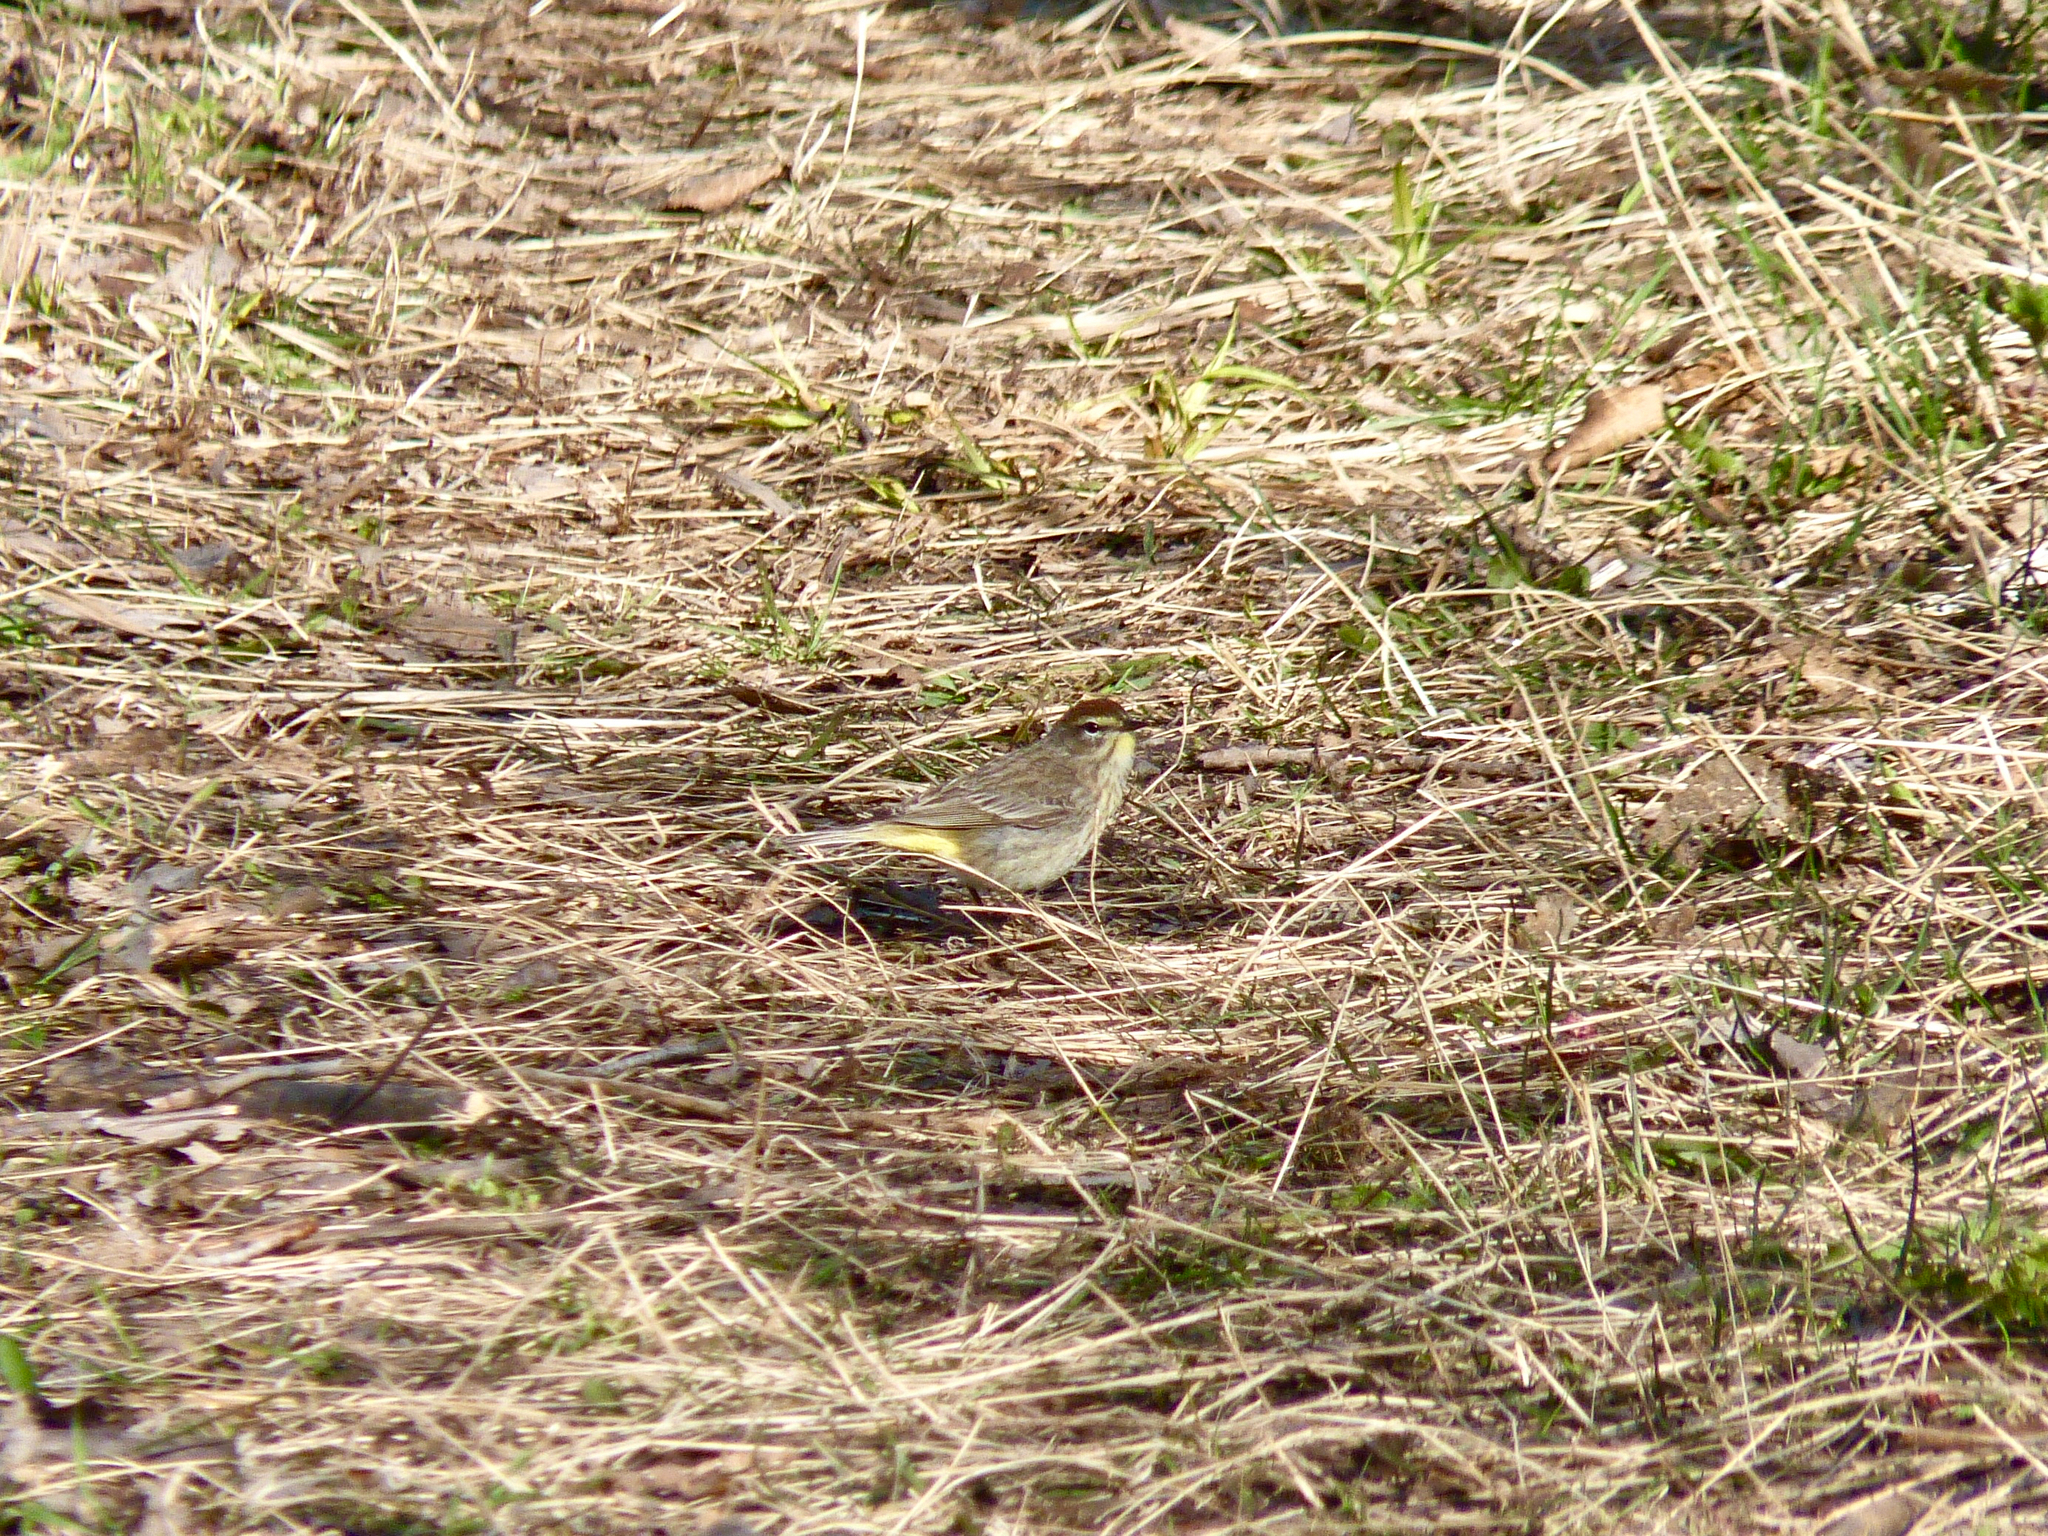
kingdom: Animalia
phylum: Chordata
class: Aves
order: Passeriformes
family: Parulidae
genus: Setophaga
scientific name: Setophaga palmarum
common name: Palm warbler
